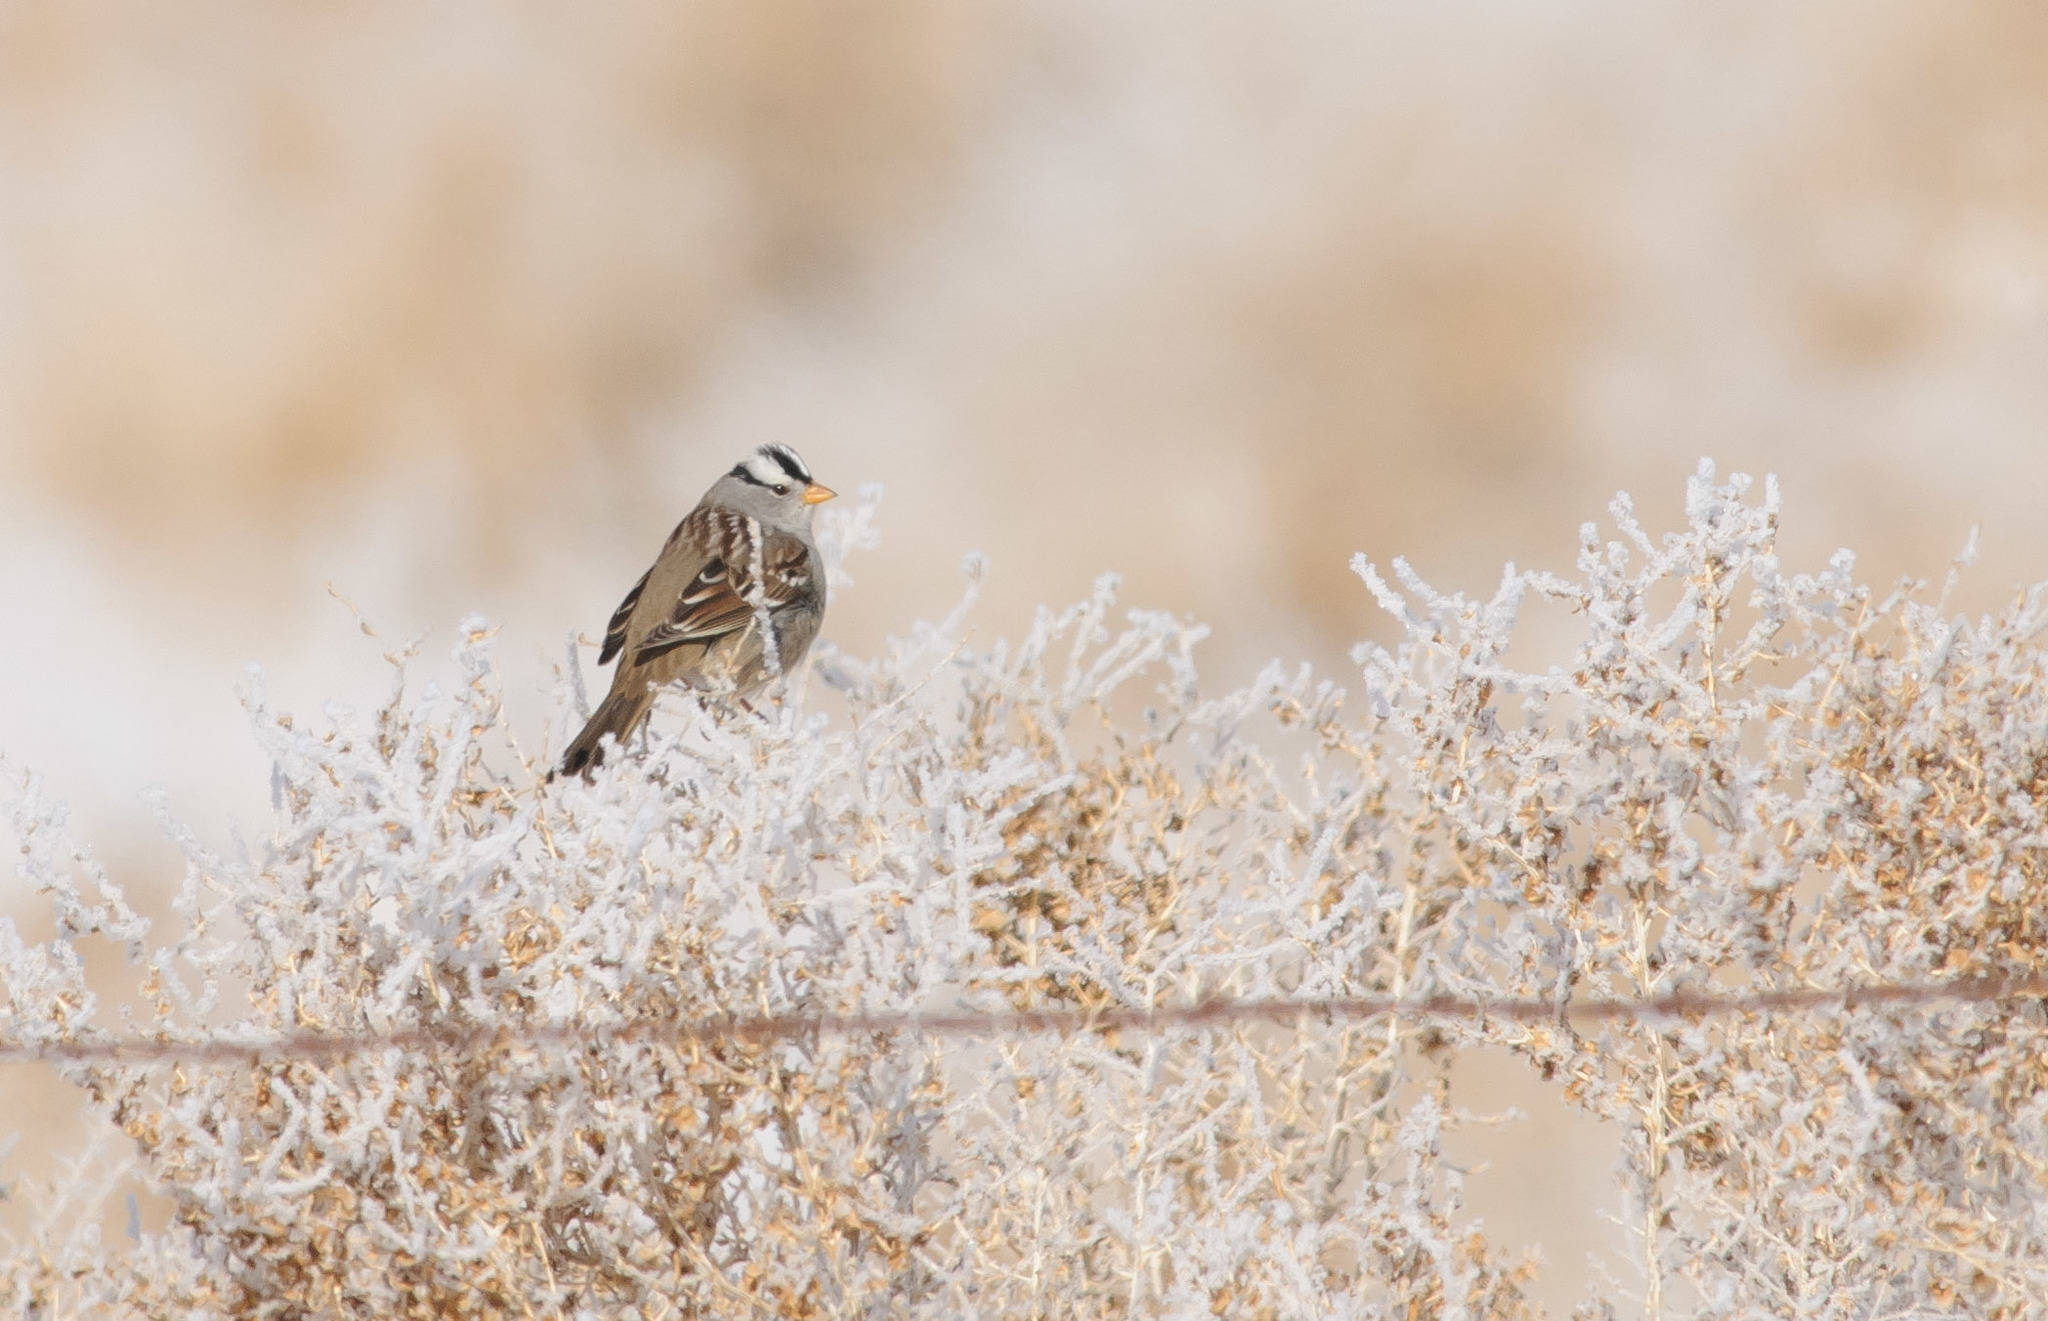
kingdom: Animalia
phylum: Chordata
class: Aves
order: Passeriformes
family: Passerellidae
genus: Zonotrichia
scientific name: Zonotrichia leucophrys
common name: White-crowned sparrow
